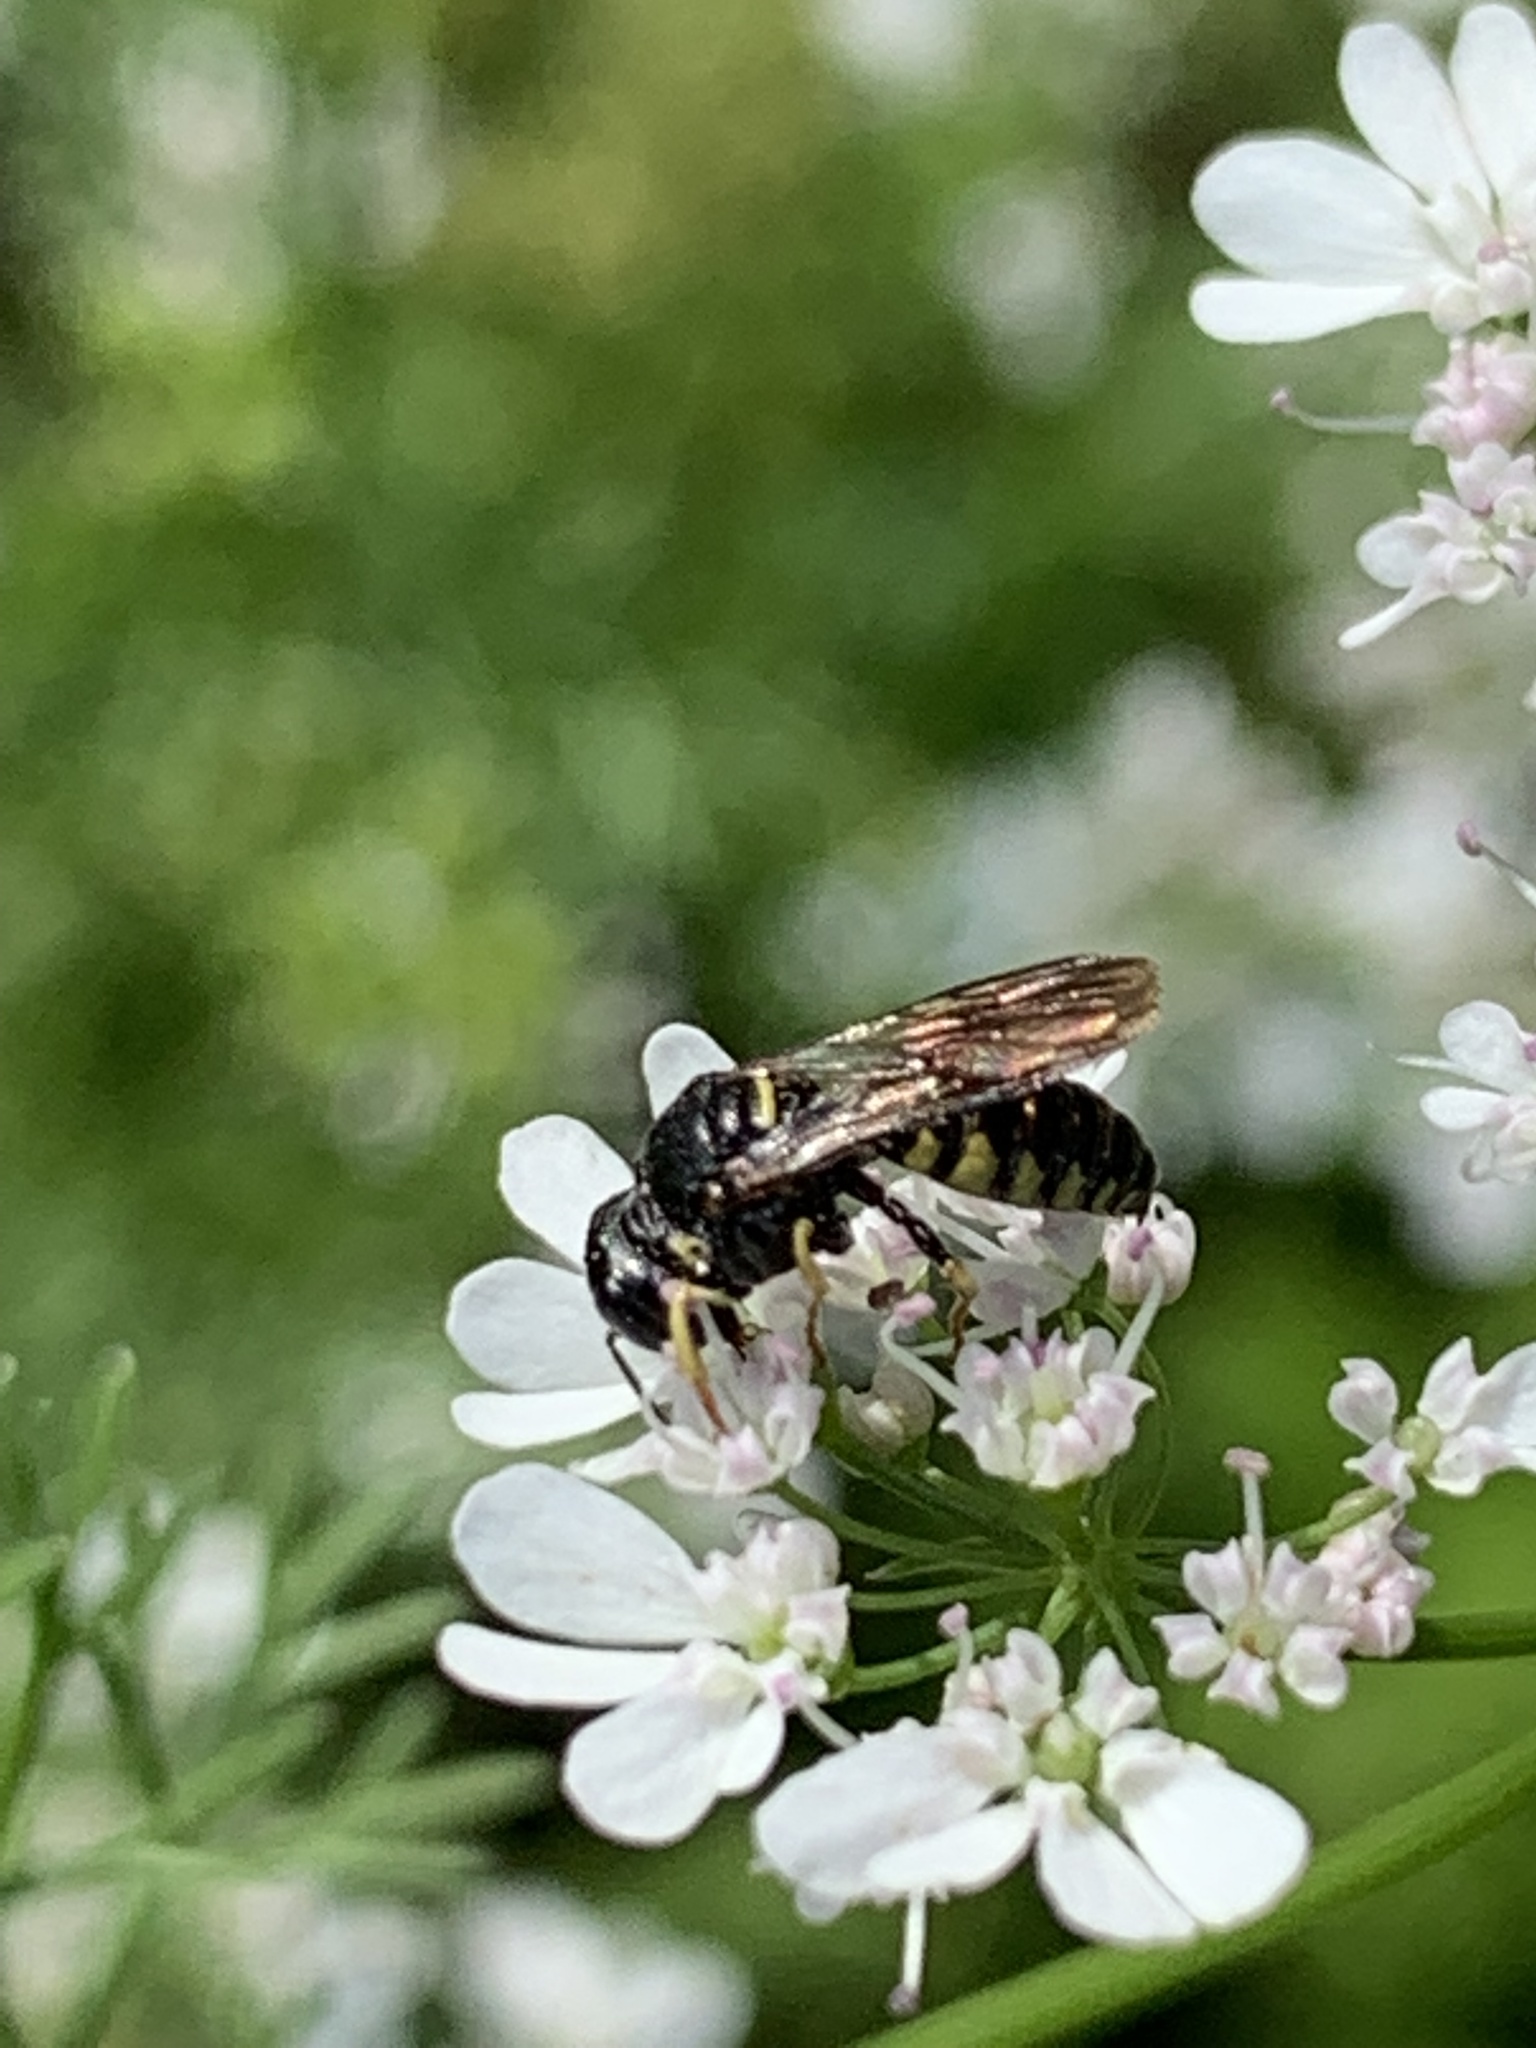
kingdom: Animalia
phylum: Arthropoda
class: Insecta
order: Hymenoptera
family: Crabronidae
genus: Anacrabro
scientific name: Anacrabro ocellatus
